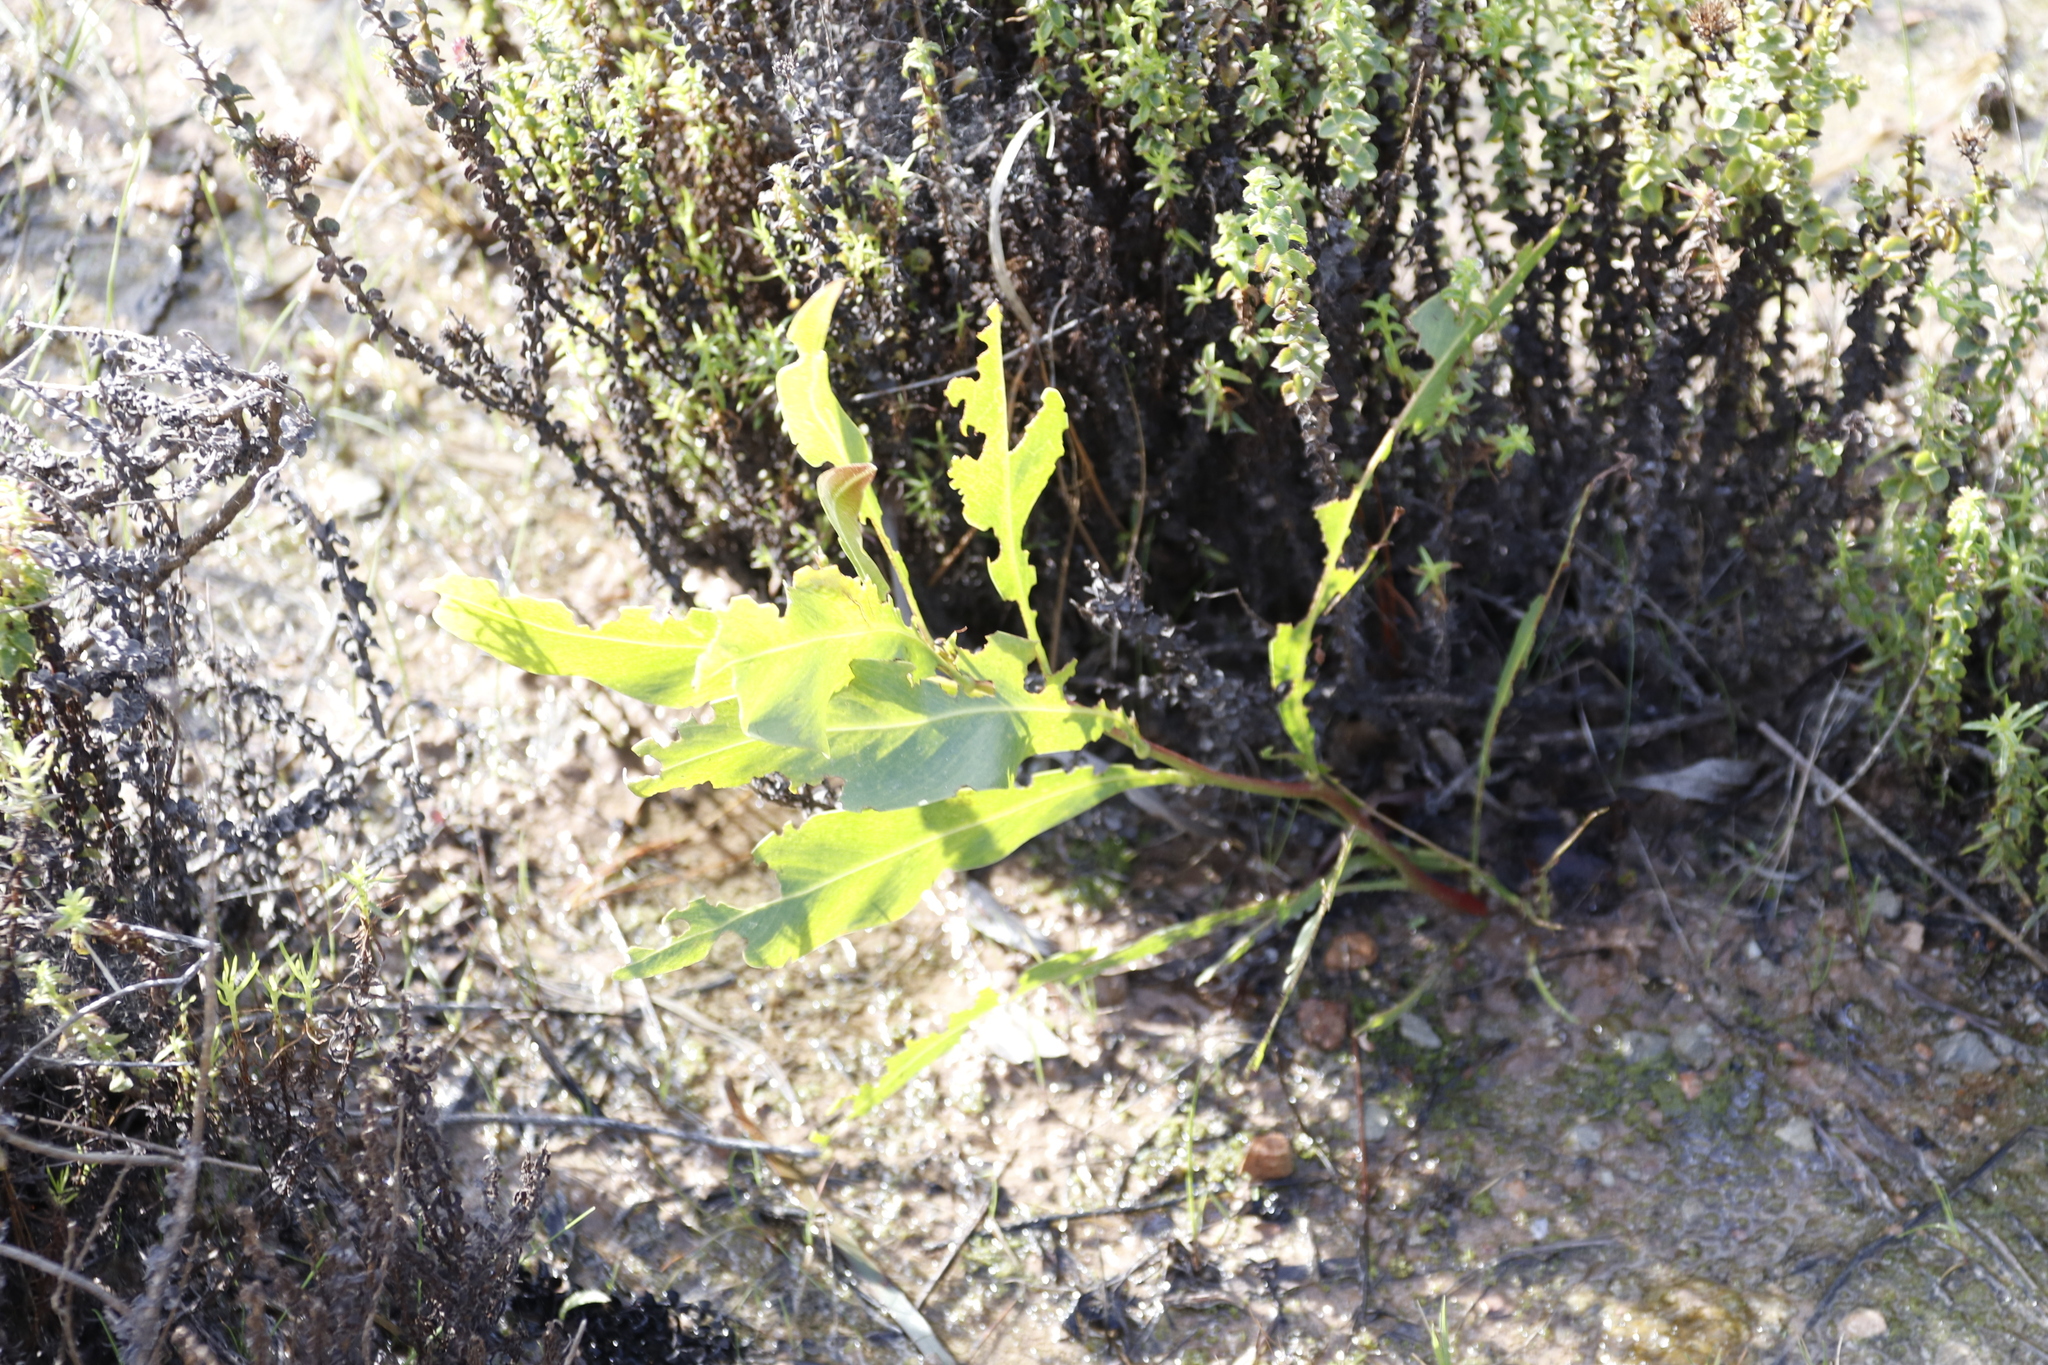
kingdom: Plantae
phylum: Tracheophyta
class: Magnoliopsida
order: Fabales
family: Fabaceae
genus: Acacia
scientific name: Acacia saligna
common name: Orange wattle
